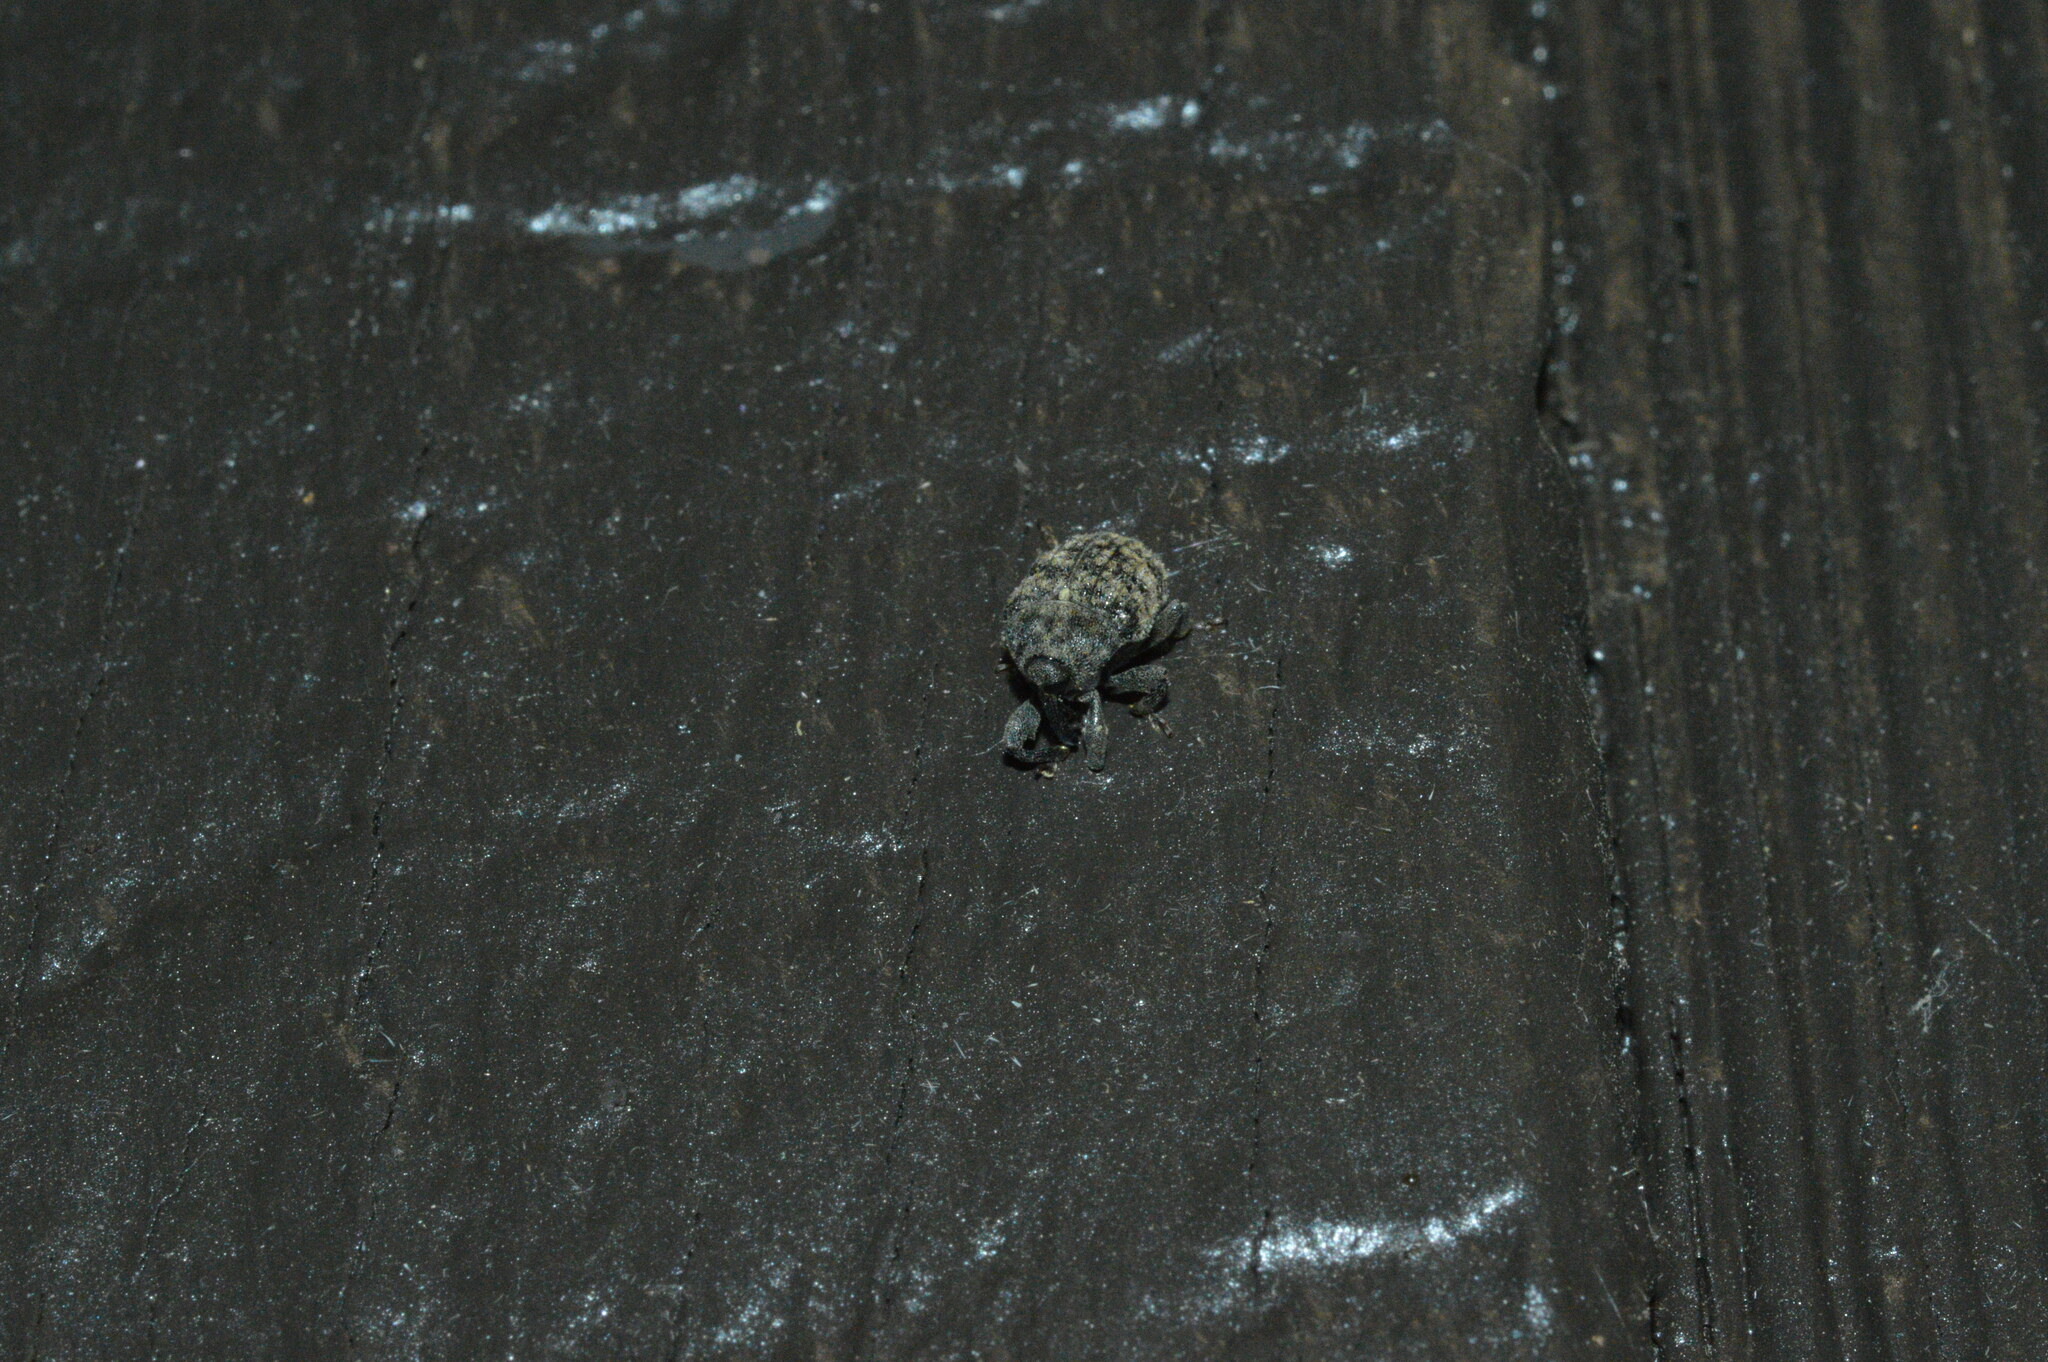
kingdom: Animalia
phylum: Arthropoda
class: Insecta
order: Coleoptera
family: Curculionidae
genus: Rhyssomatus
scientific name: Rhyssomatus lineaticollis
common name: Milkweed stem weevil
